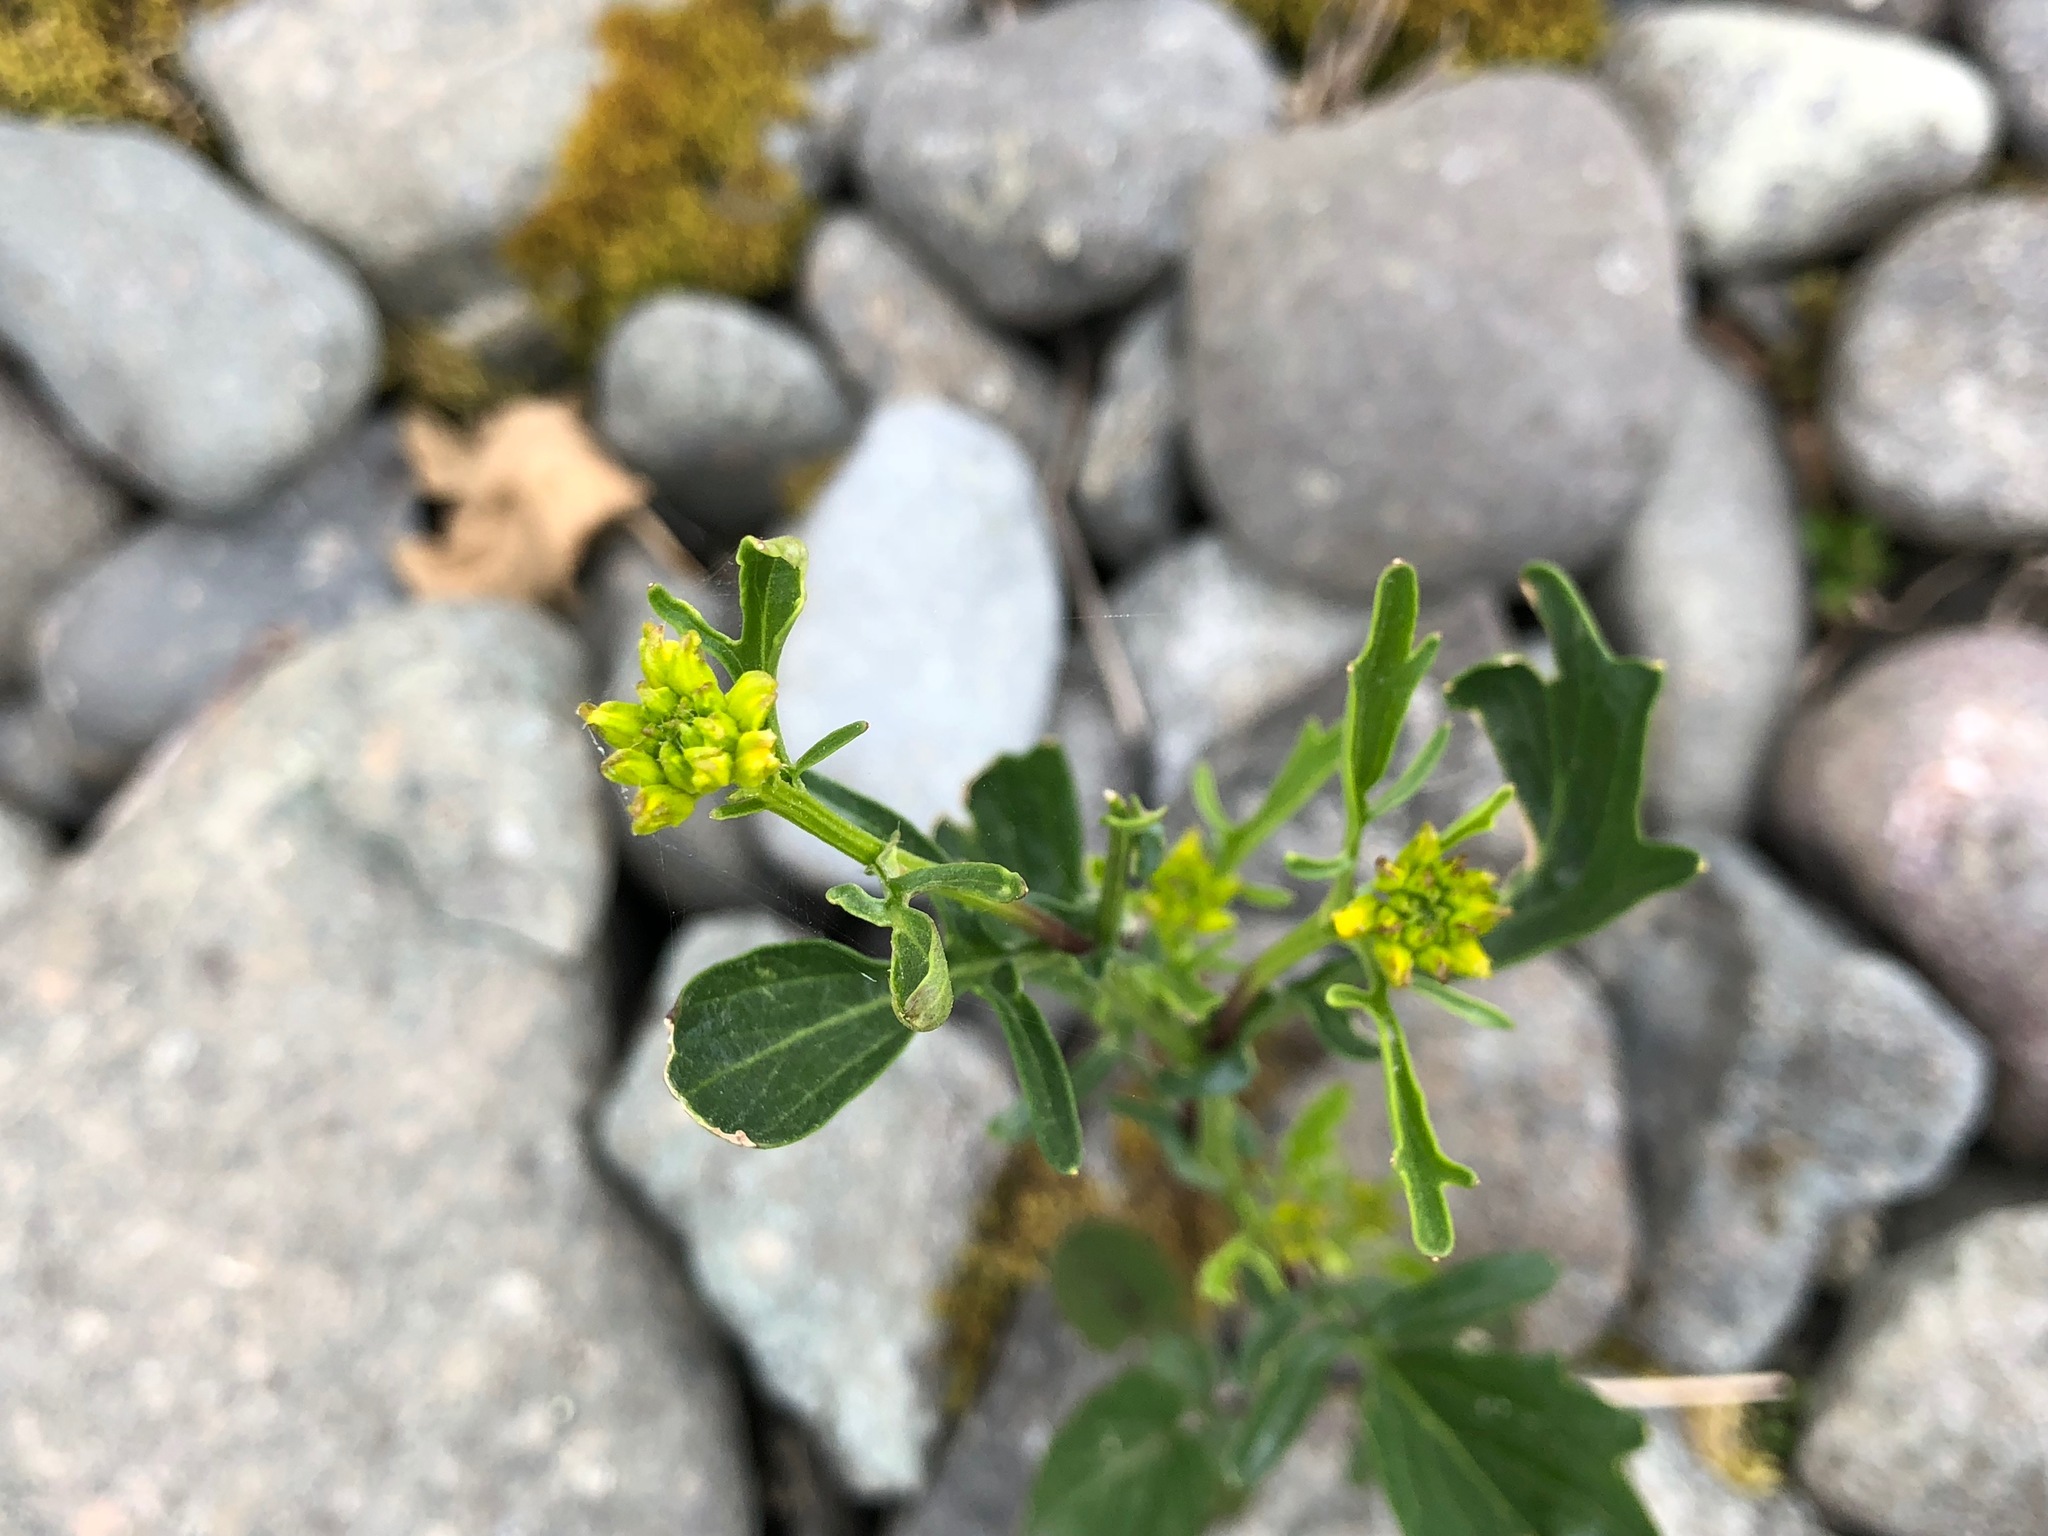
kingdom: Plantae
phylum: Tracheophyta
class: Magnoliopsida
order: Brassicales
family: Brassicaceae
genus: Barbarea
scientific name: Barbarea orthoceras
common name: American wintercress
